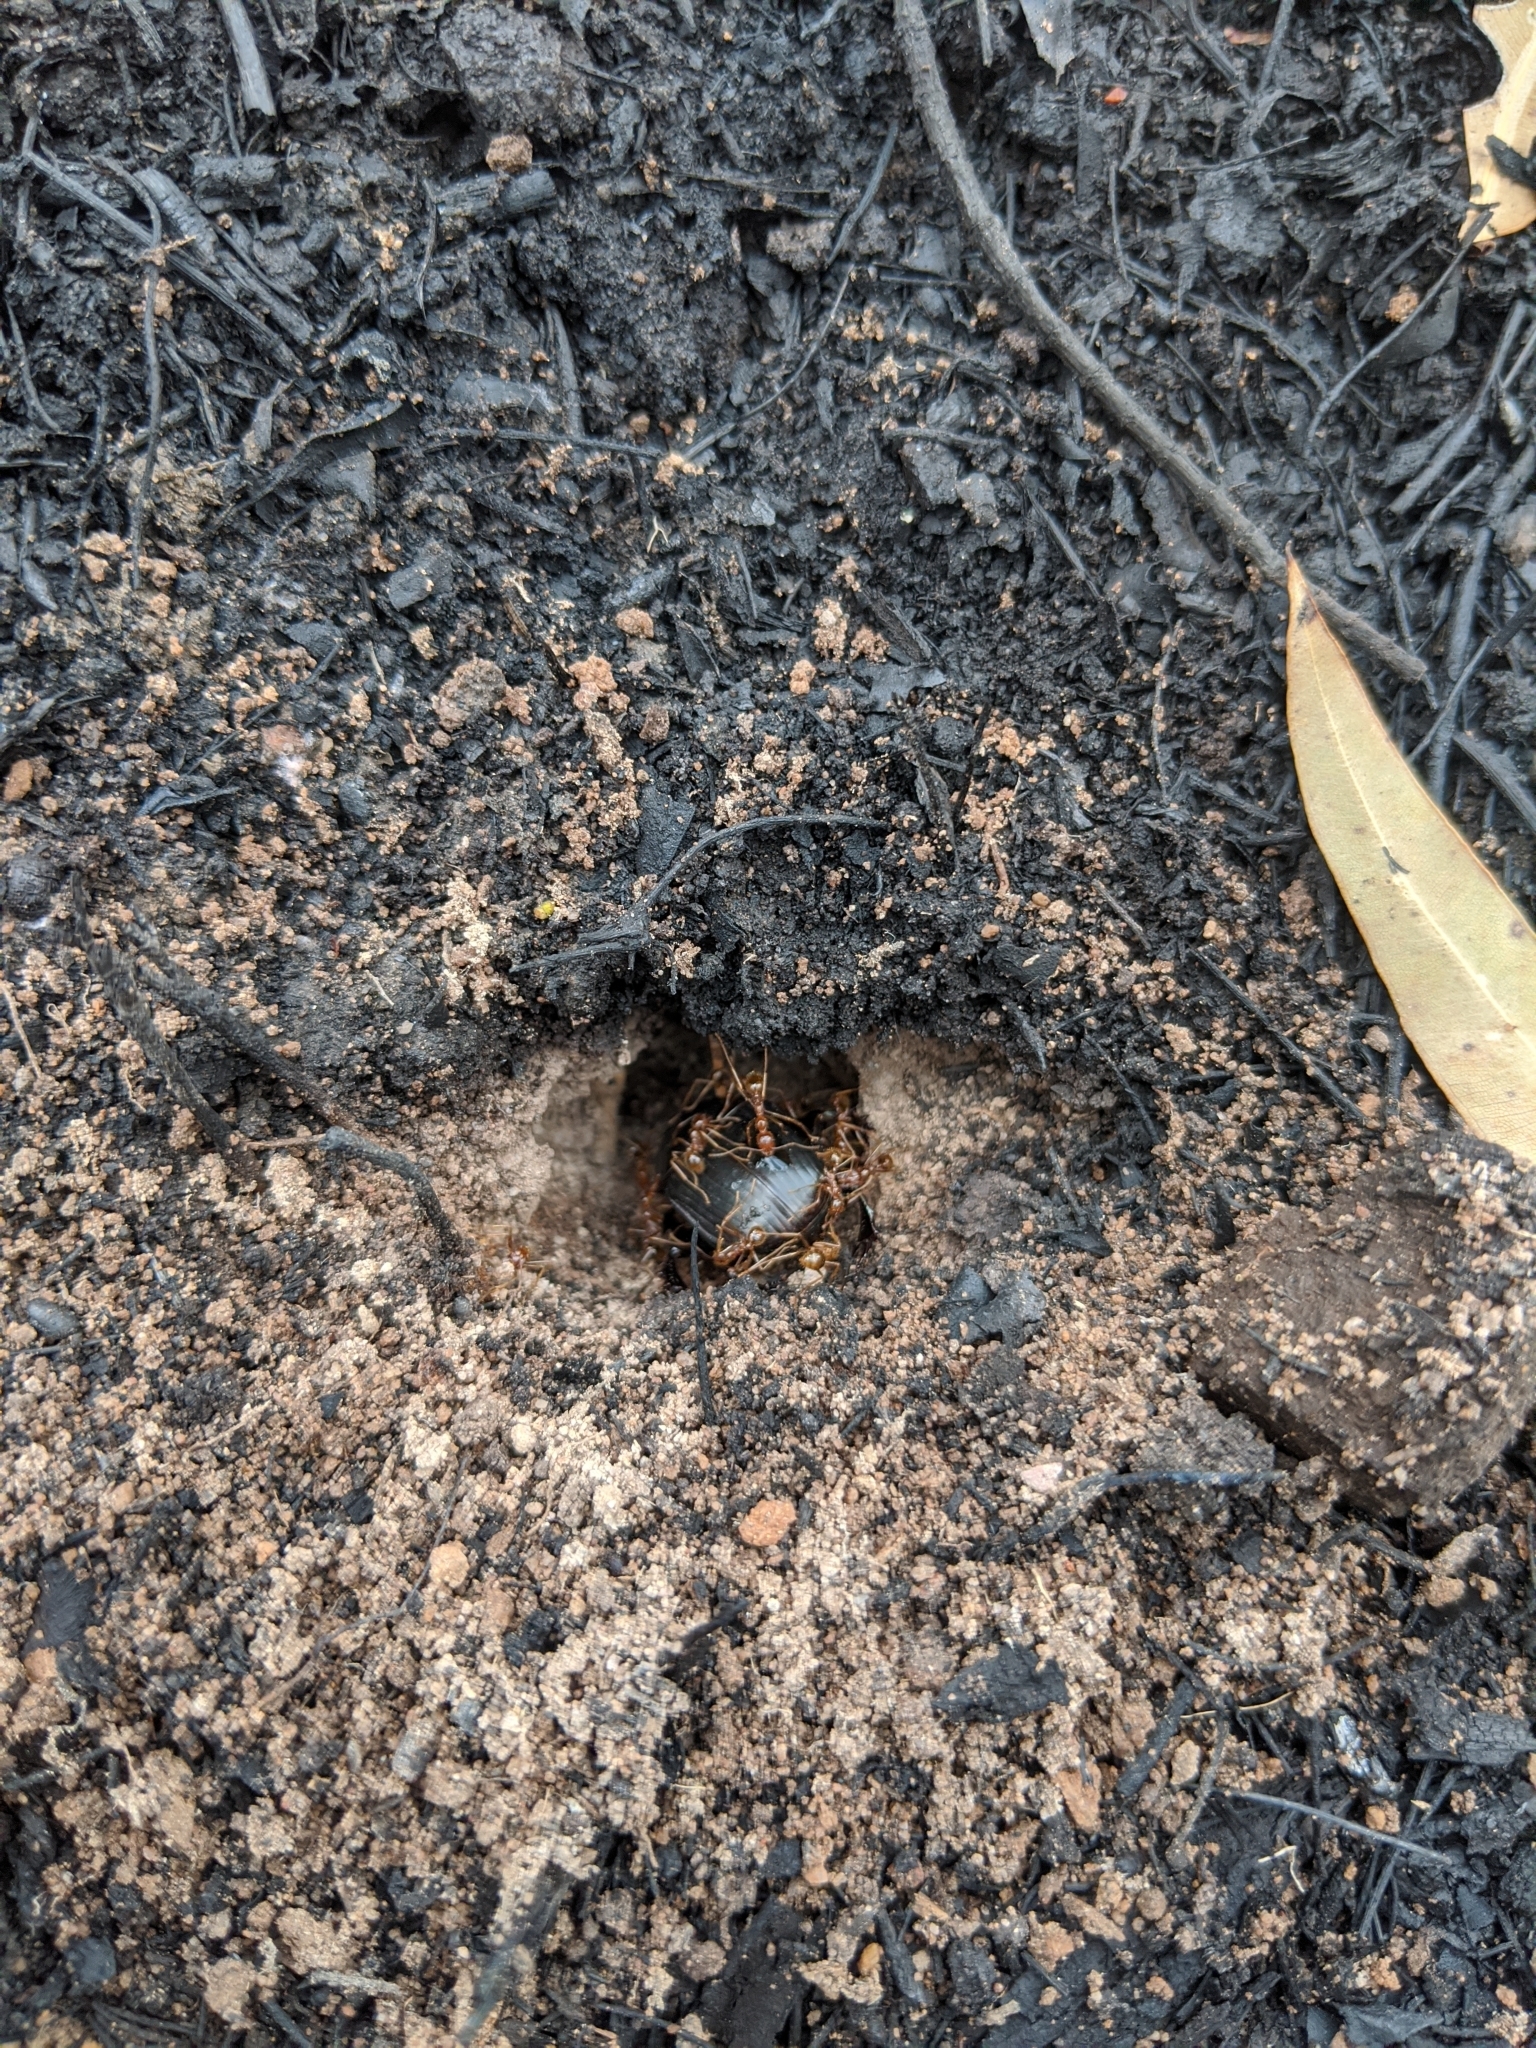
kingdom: Animalia
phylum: Arthropoda
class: Insecta
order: Hymenoptera
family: Formicidae
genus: Aphaenogaster
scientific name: Aphaenogaster longiceps
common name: Funnel ant
